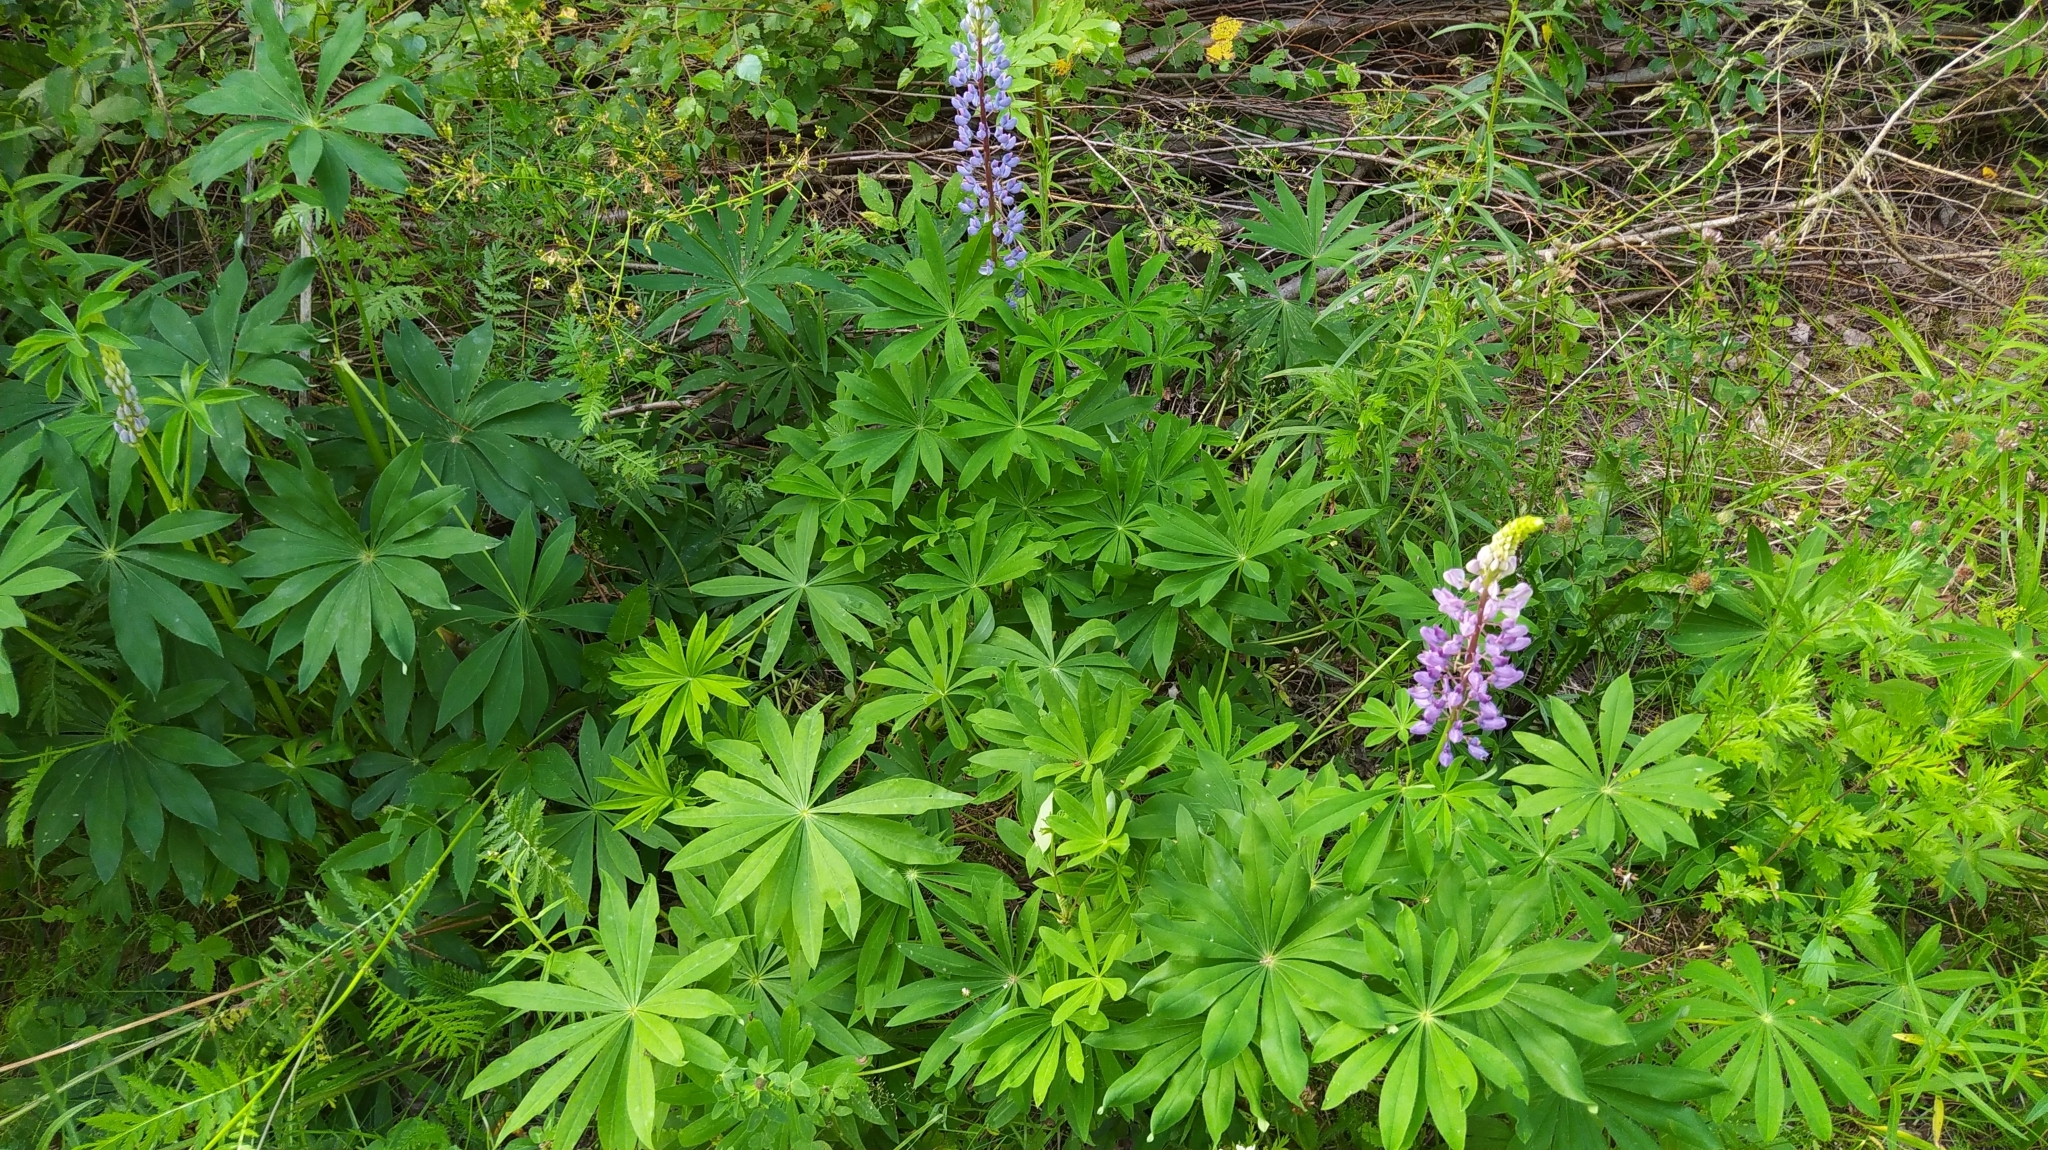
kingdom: Plantae
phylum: Tracheophyta
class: Magnoliopsida
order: Fabales
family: Fabaceae
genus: Lupinus
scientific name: Lupinus polyphyllus
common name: Garden lupin
